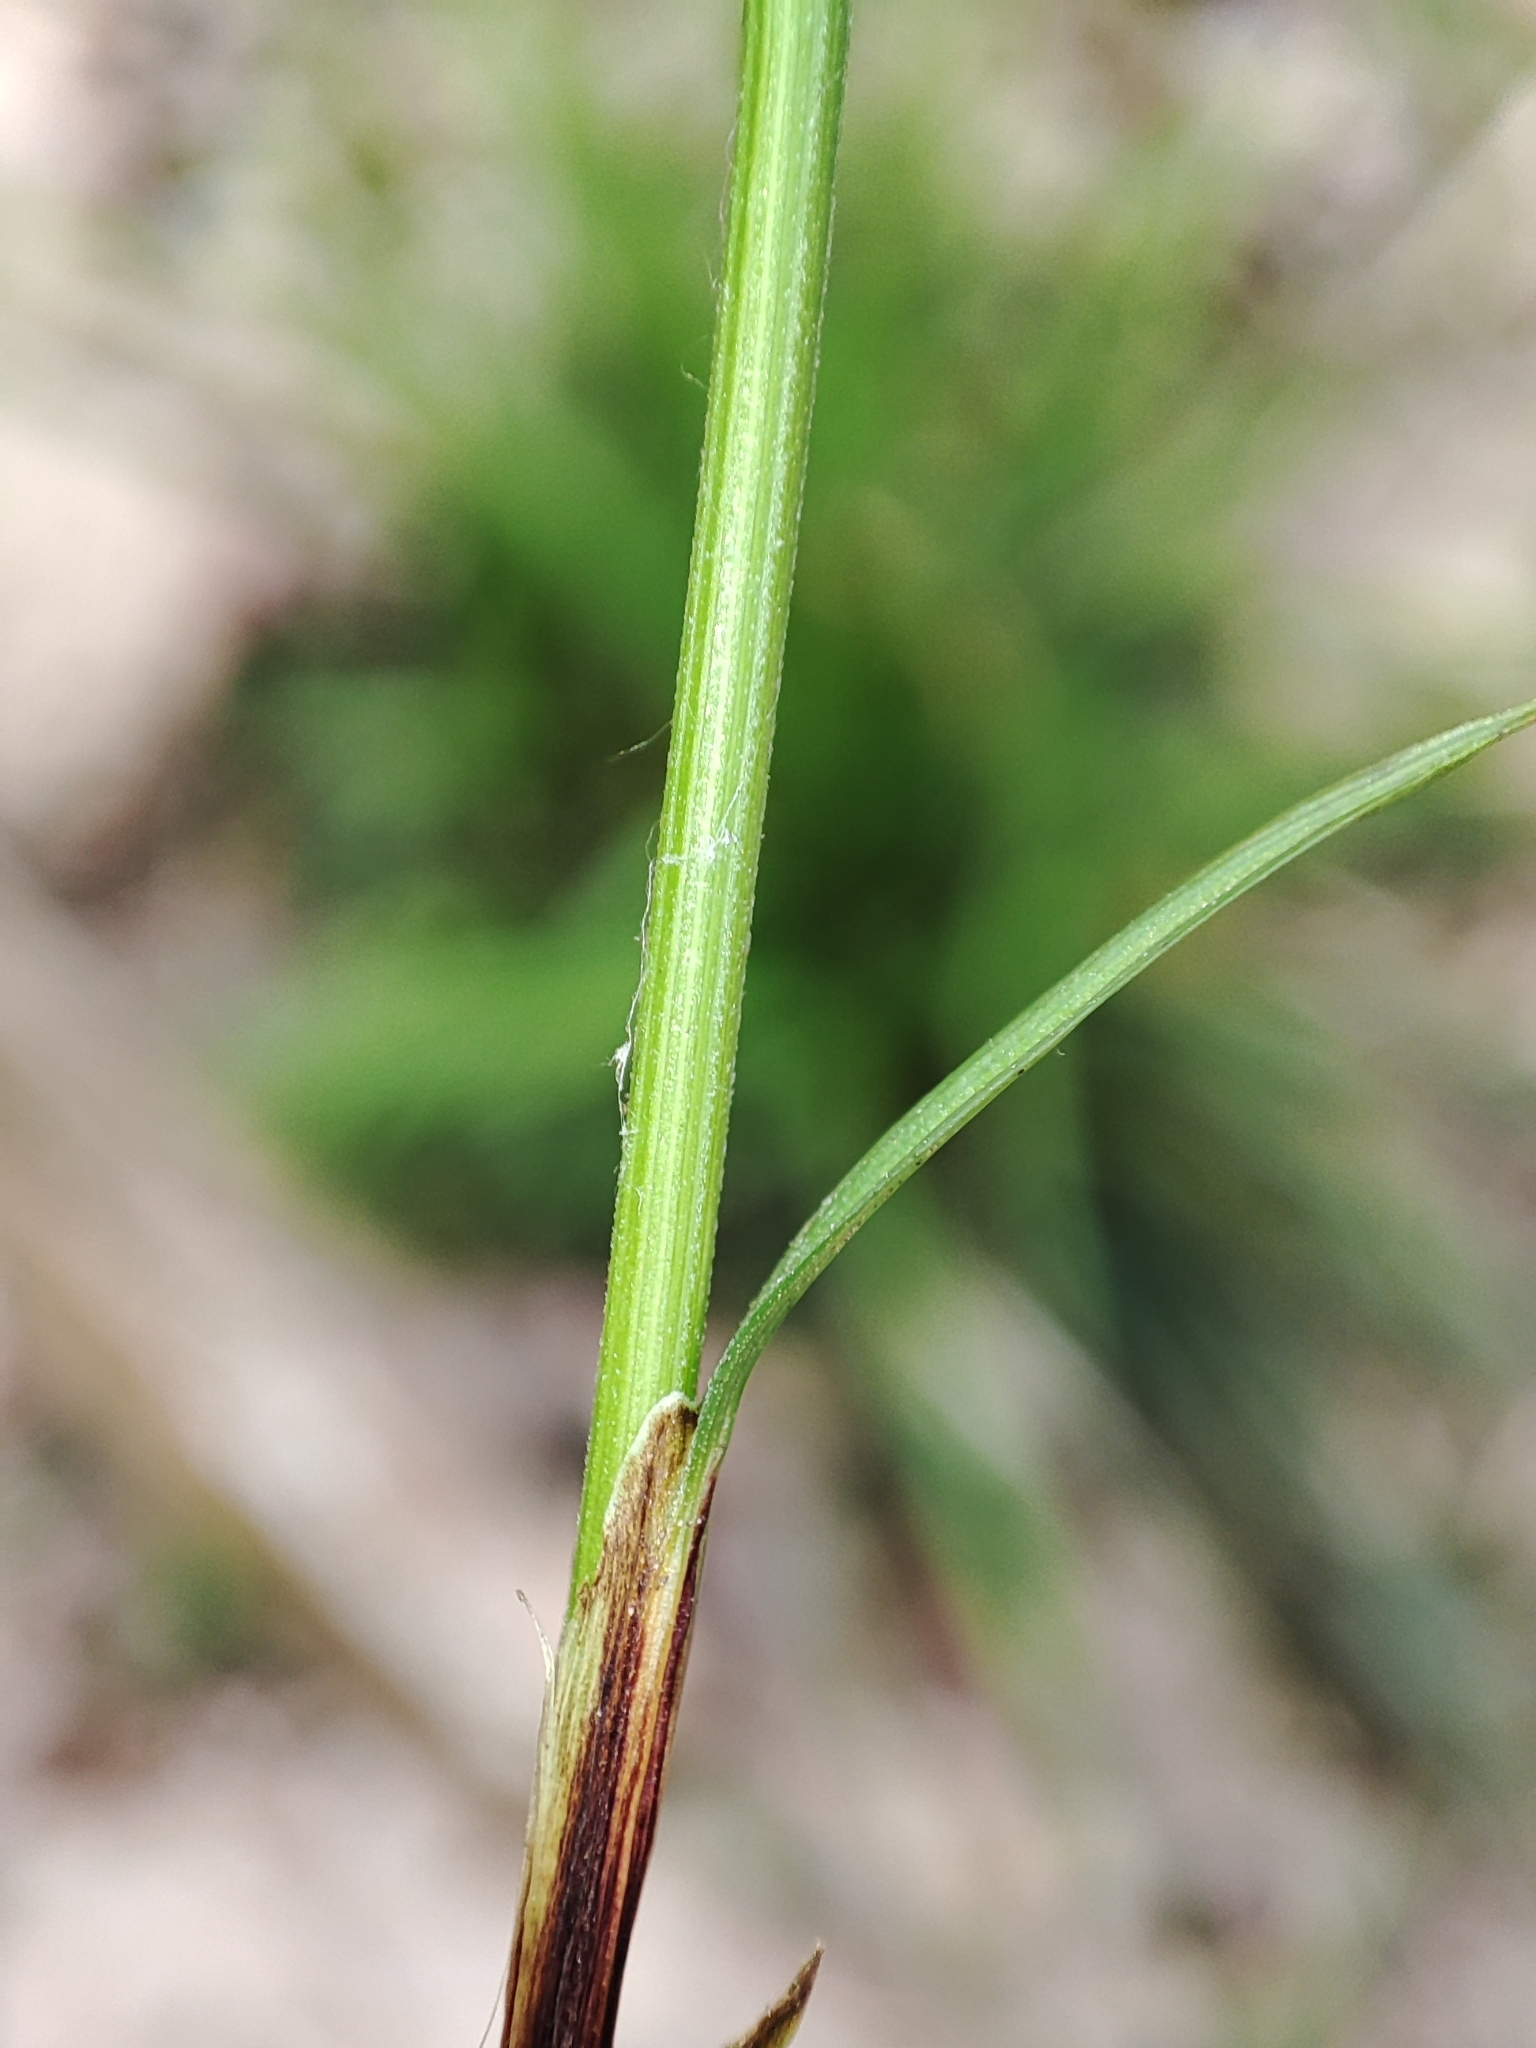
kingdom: Plantae
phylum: Tracheophyta
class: Liliopsida
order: Poales
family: Cyperaceae
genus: Carex
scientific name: Carex digitata
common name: Fingered sedge
